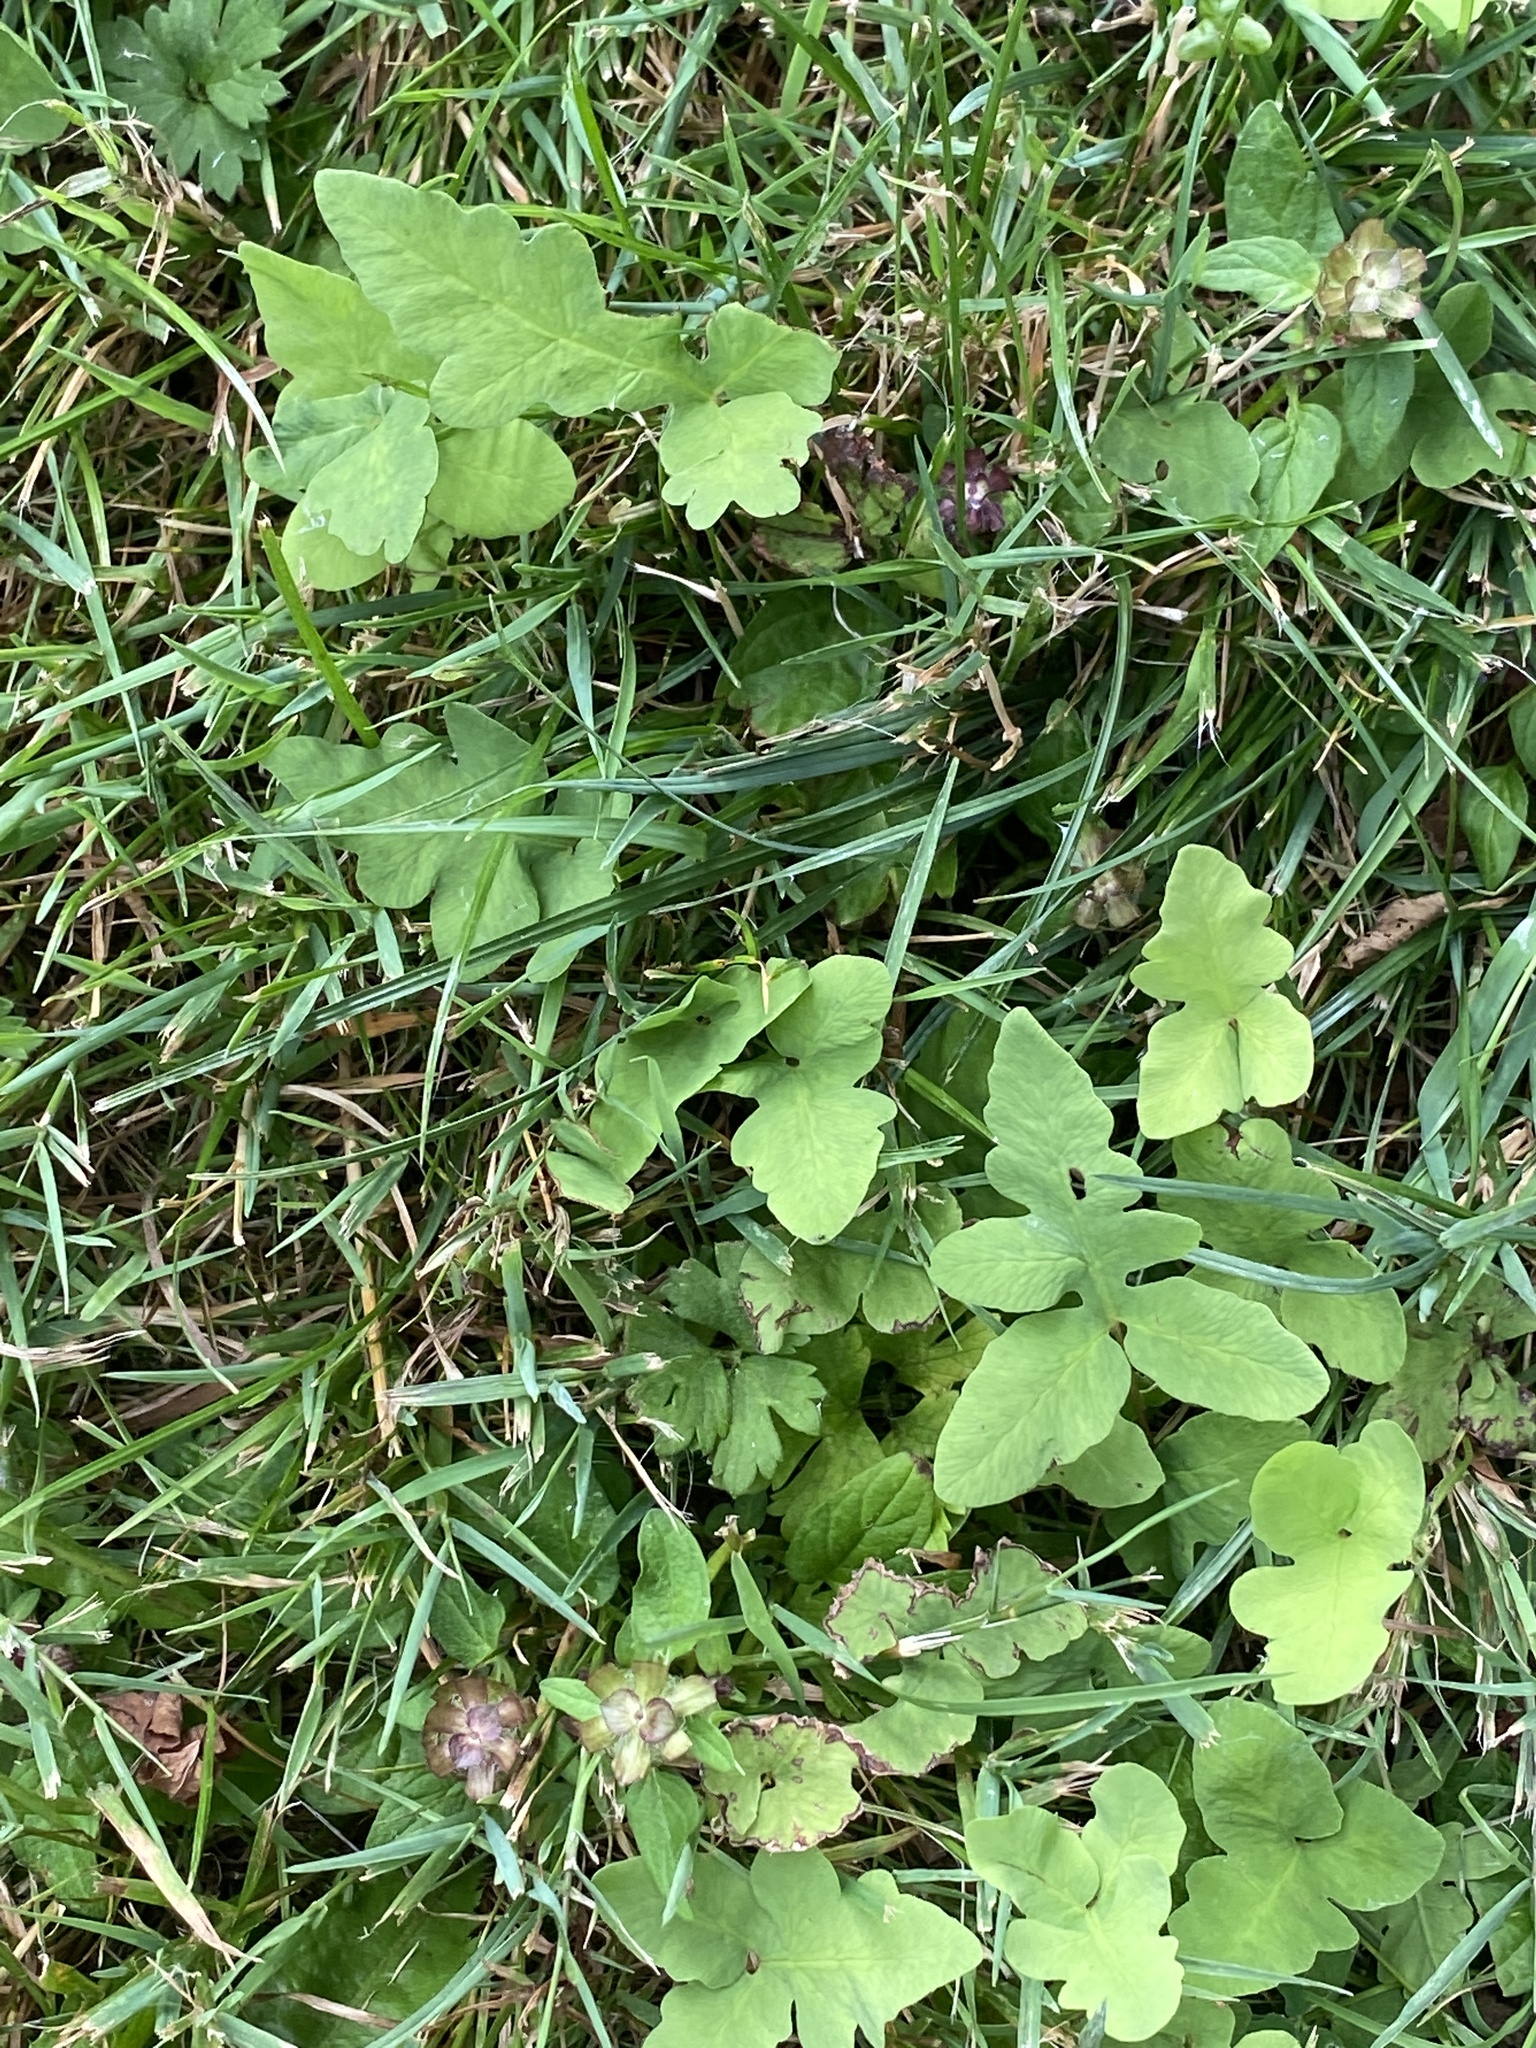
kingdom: Plantae
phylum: Tracheophyta
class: Polypodiopsida
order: Polypodiales
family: Onocleaceae
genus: Onoclea
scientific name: Onoclea sensibilis
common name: Sensitive fern
